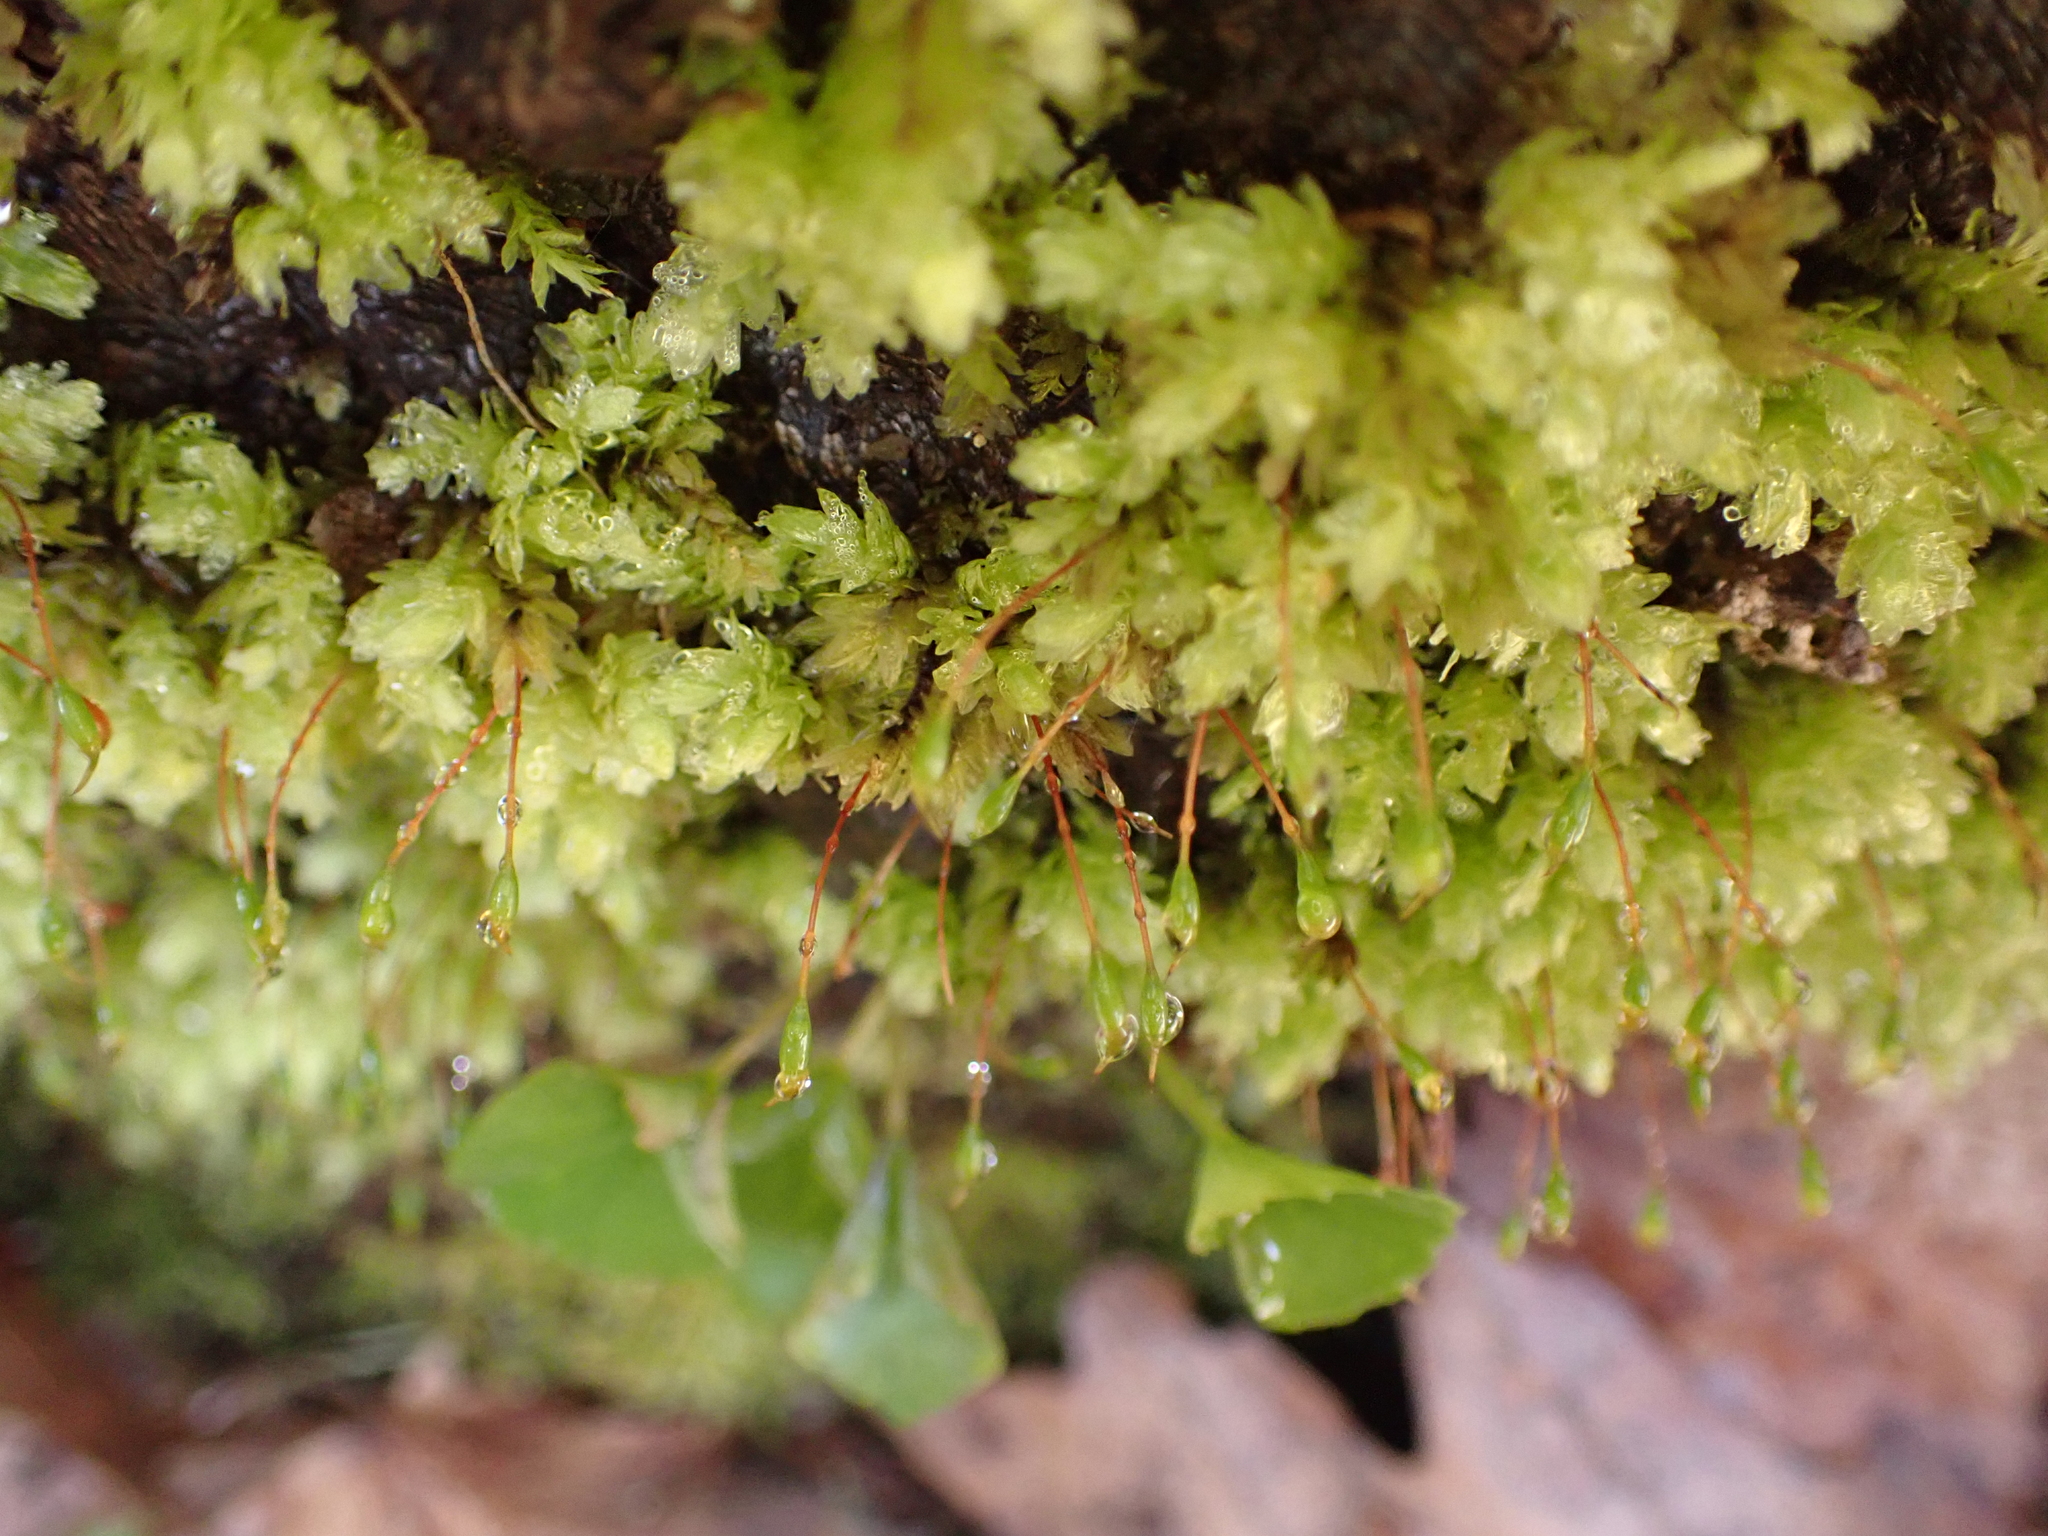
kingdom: Plantae
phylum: Bryophyta
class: Bryopsida
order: Aulacomniales
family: Aulacomniaceae
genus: Aulacomnium
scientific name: Aulacomnium heterostichum
